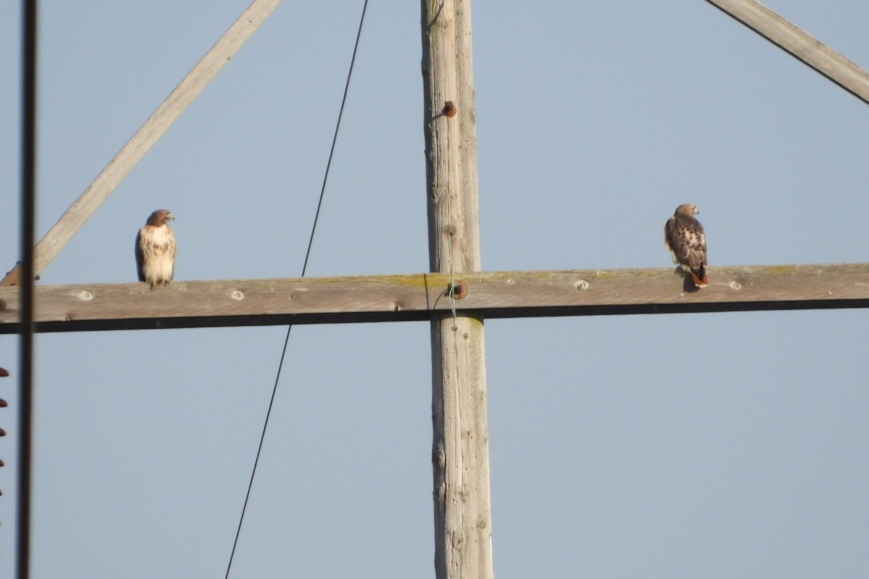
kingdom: Animalia
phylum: Chordata
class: Aves
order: Accipitriformes
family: Accipitridae
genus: Buteo
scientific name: Buteo jamaicensis
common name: Red-tailed hawk
